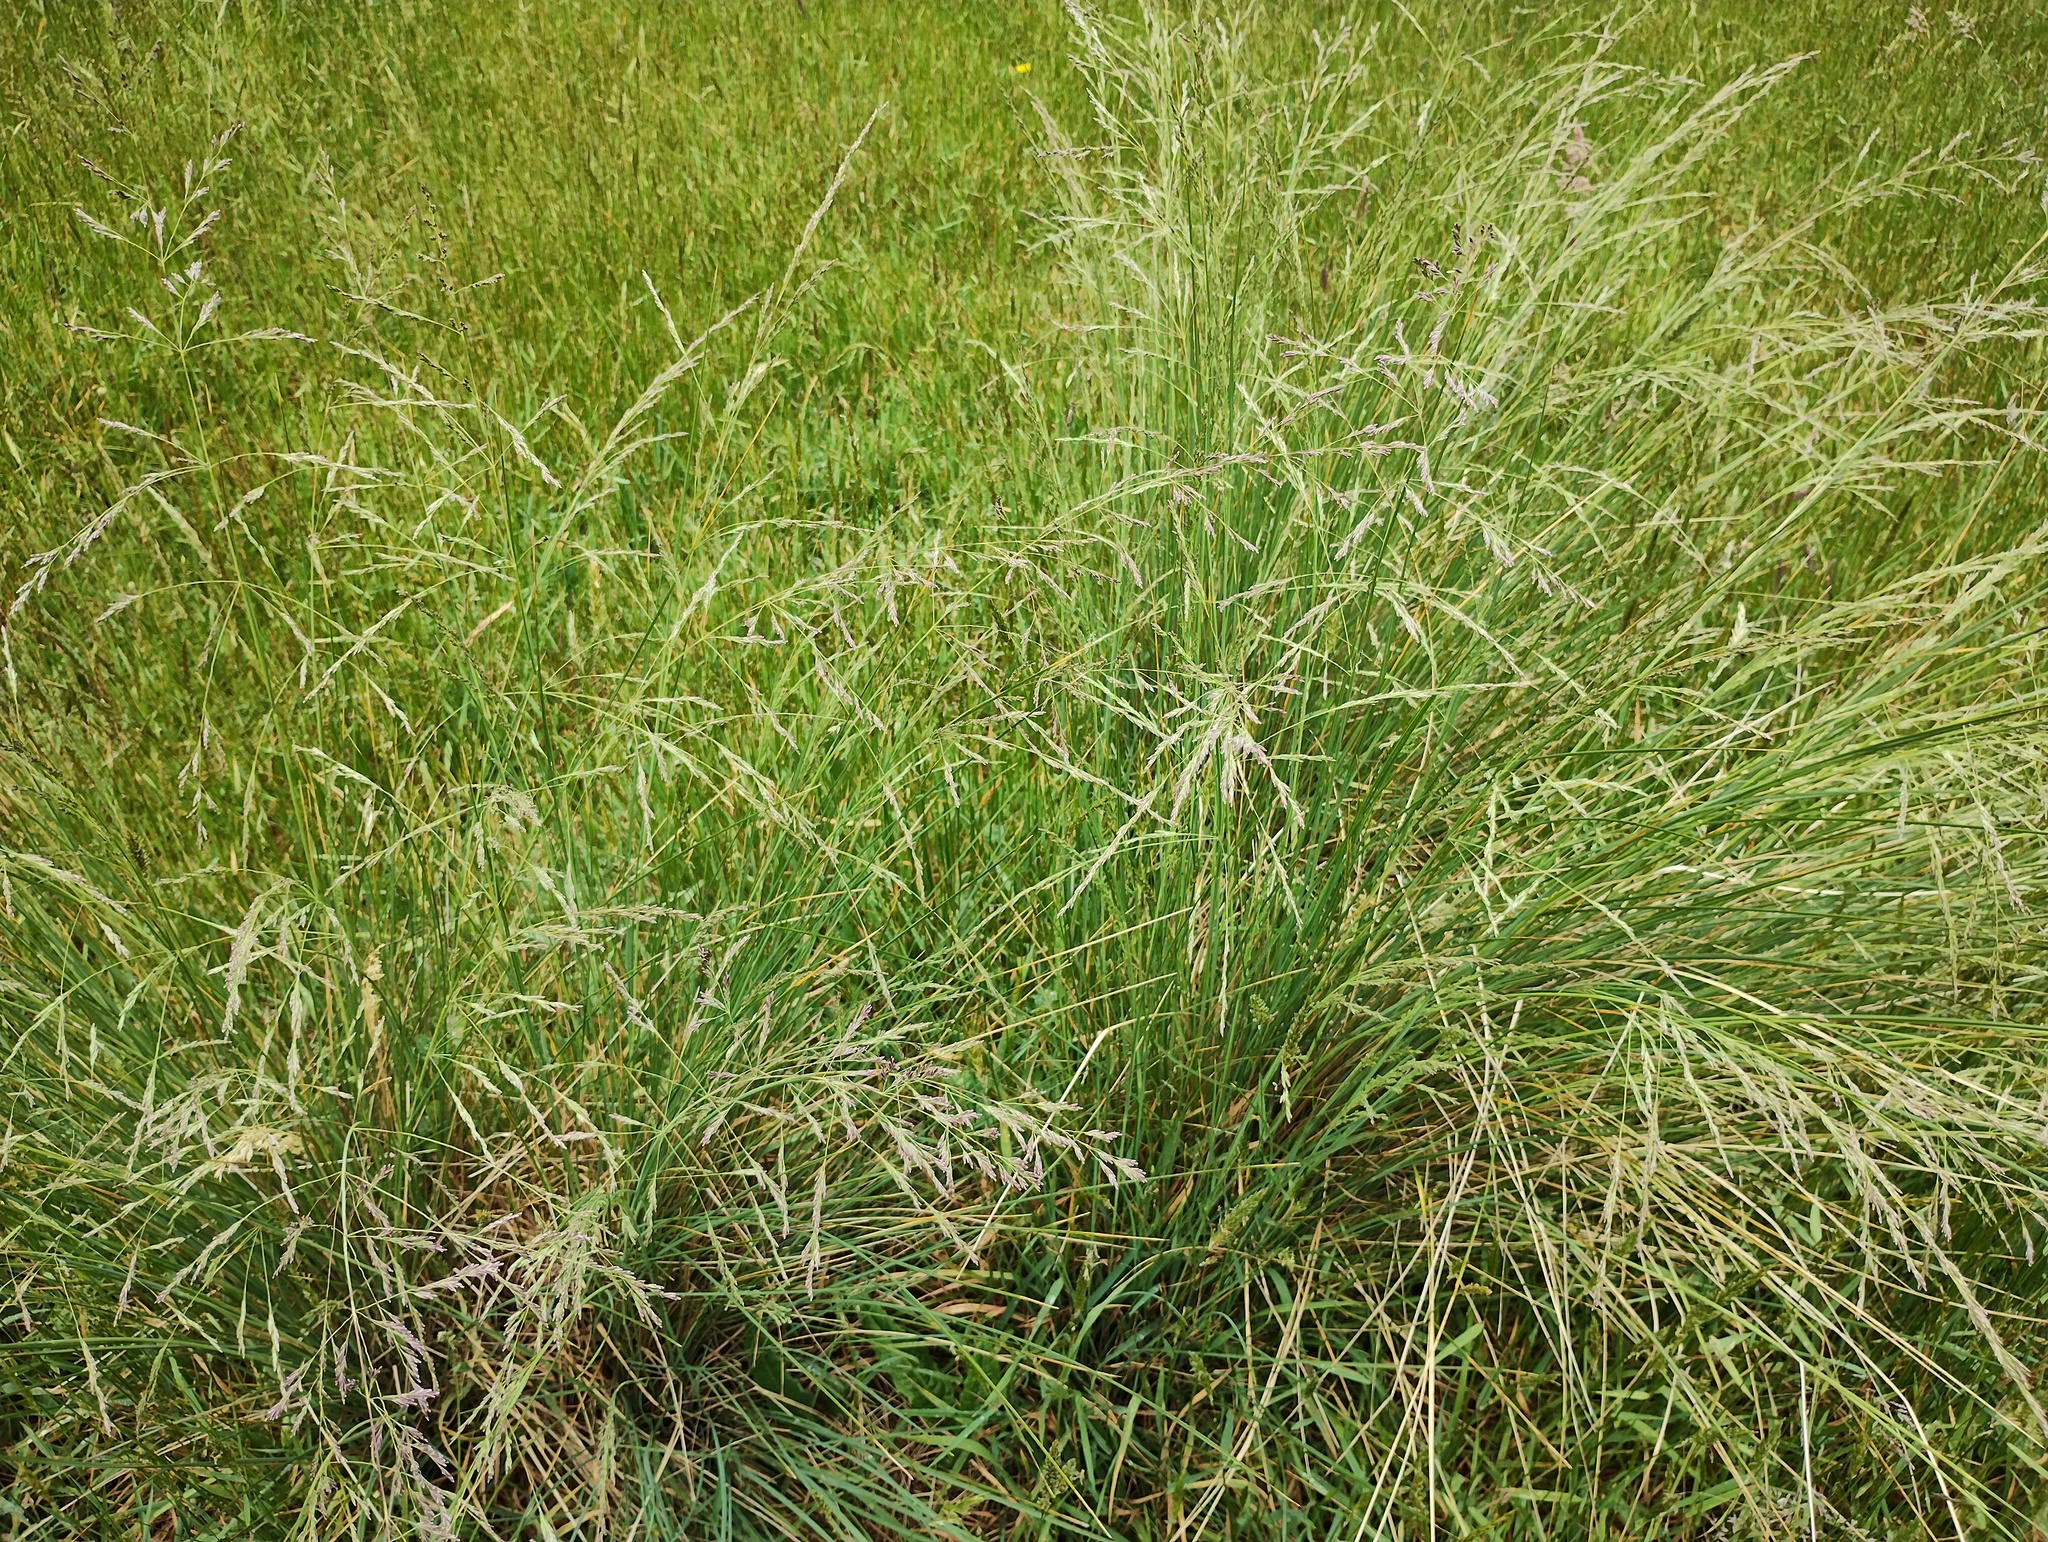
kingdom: Plantae
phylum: Tracheophyta
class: Liliopsida
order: Poales
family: Poaceae
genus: Poa
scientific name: Poa labillardierei
